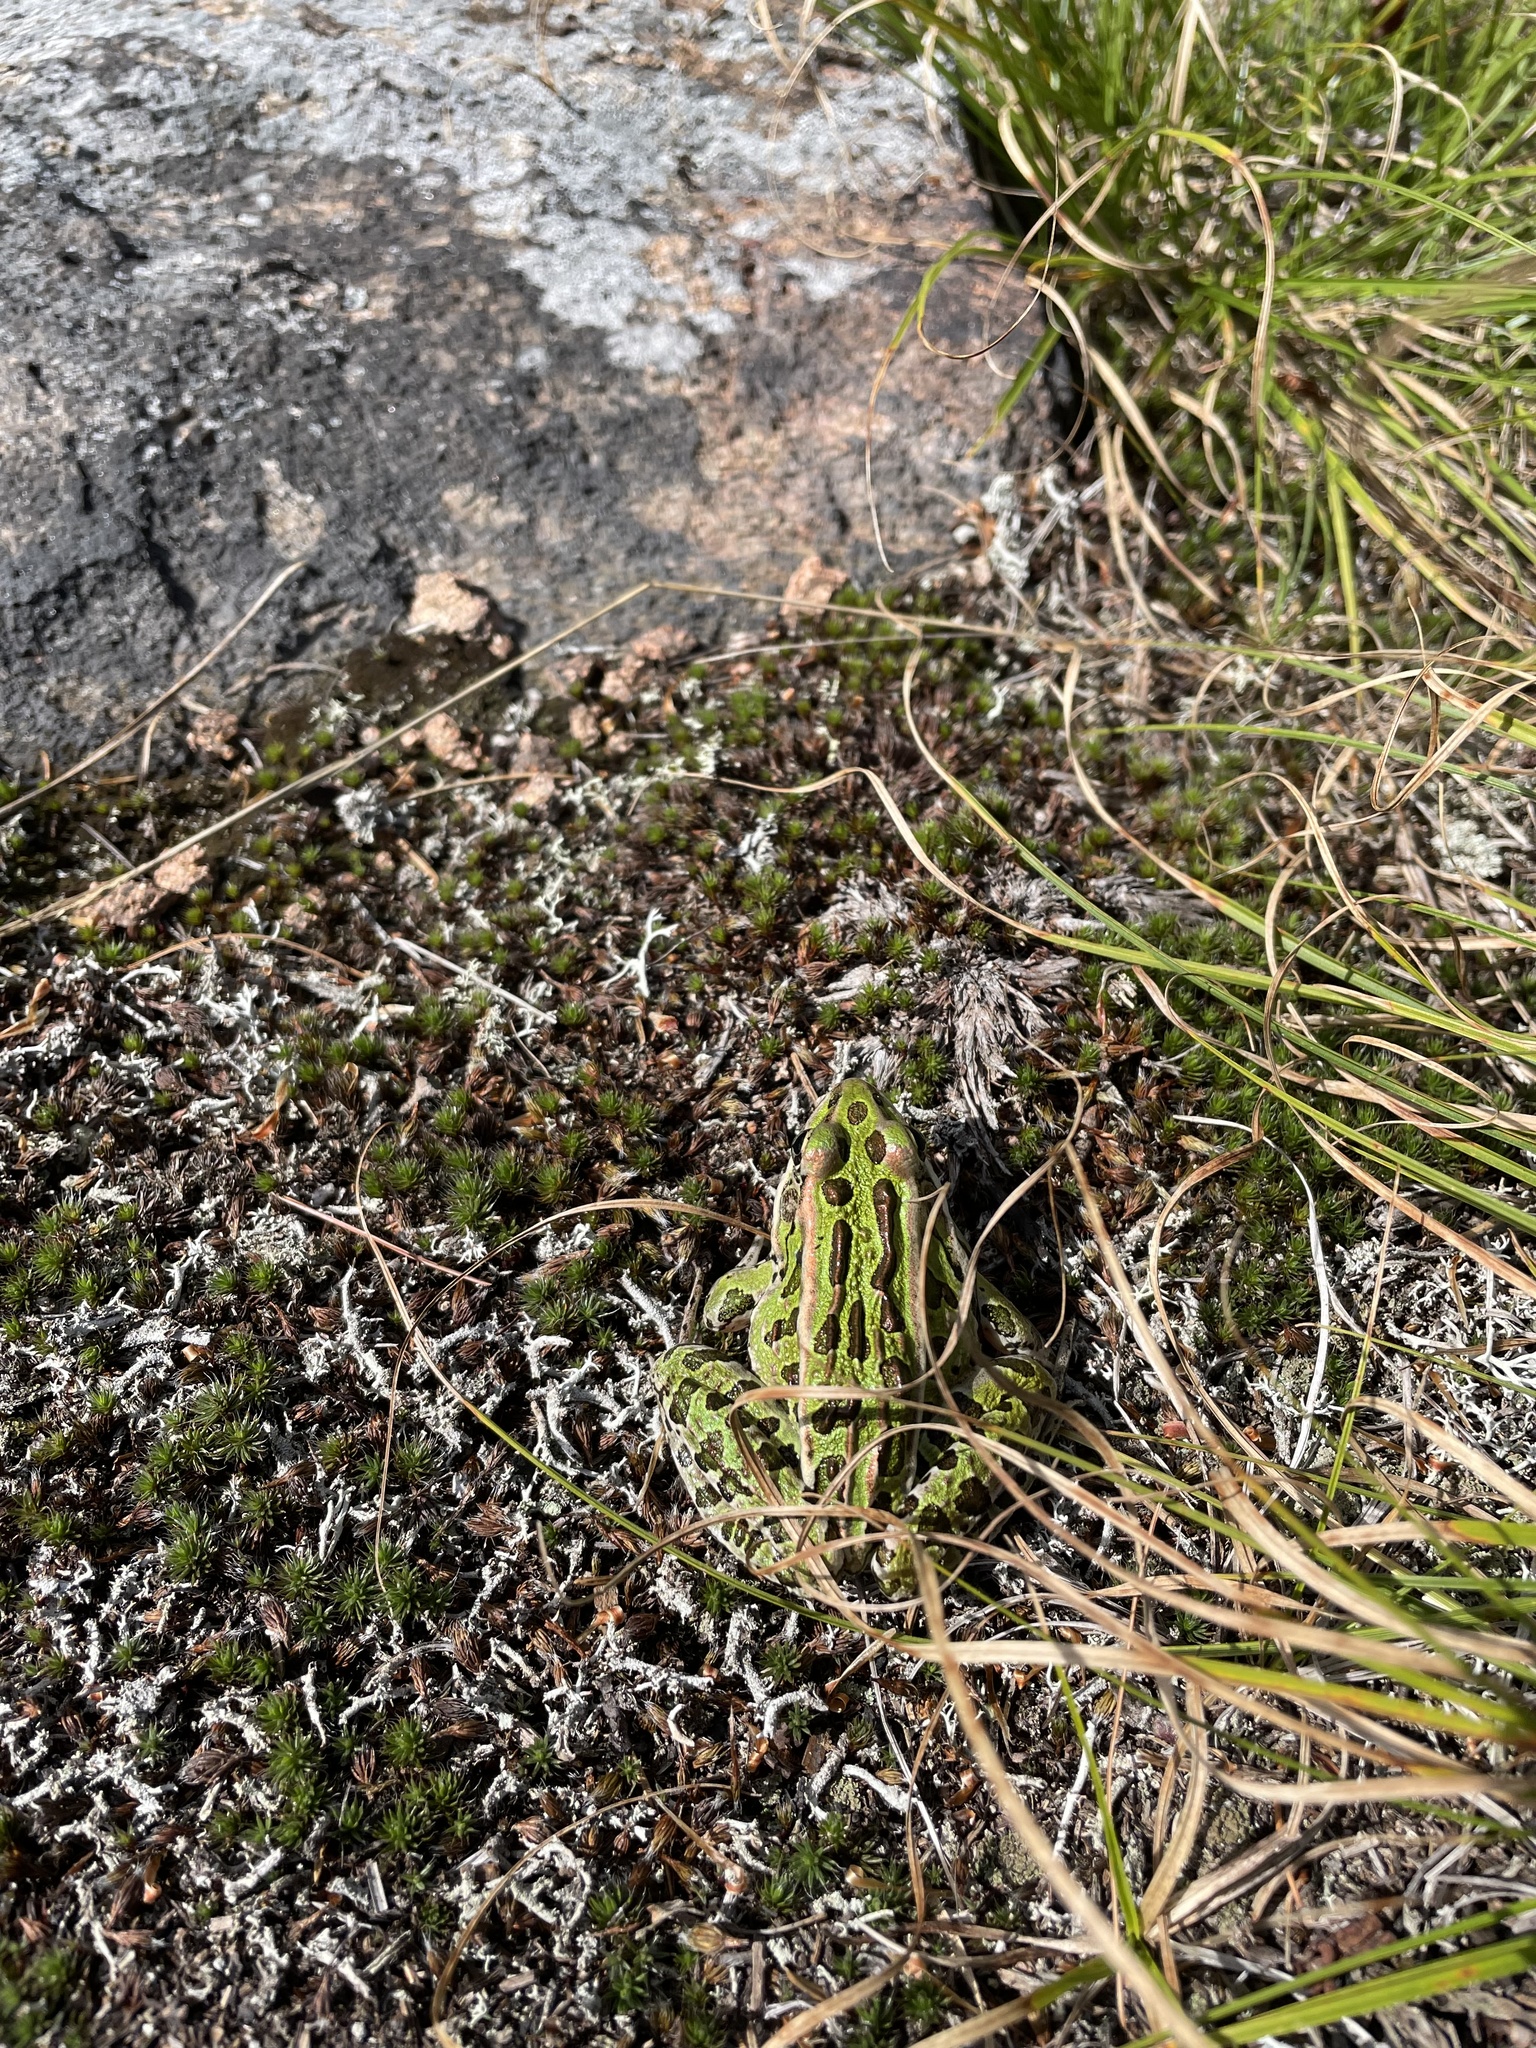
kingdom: Animalia
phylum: Chordata
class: Amphibia
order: Anura
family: Ranidae
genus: Lithobates
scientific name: Lithobates pipiens
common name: Northern leopard frog
